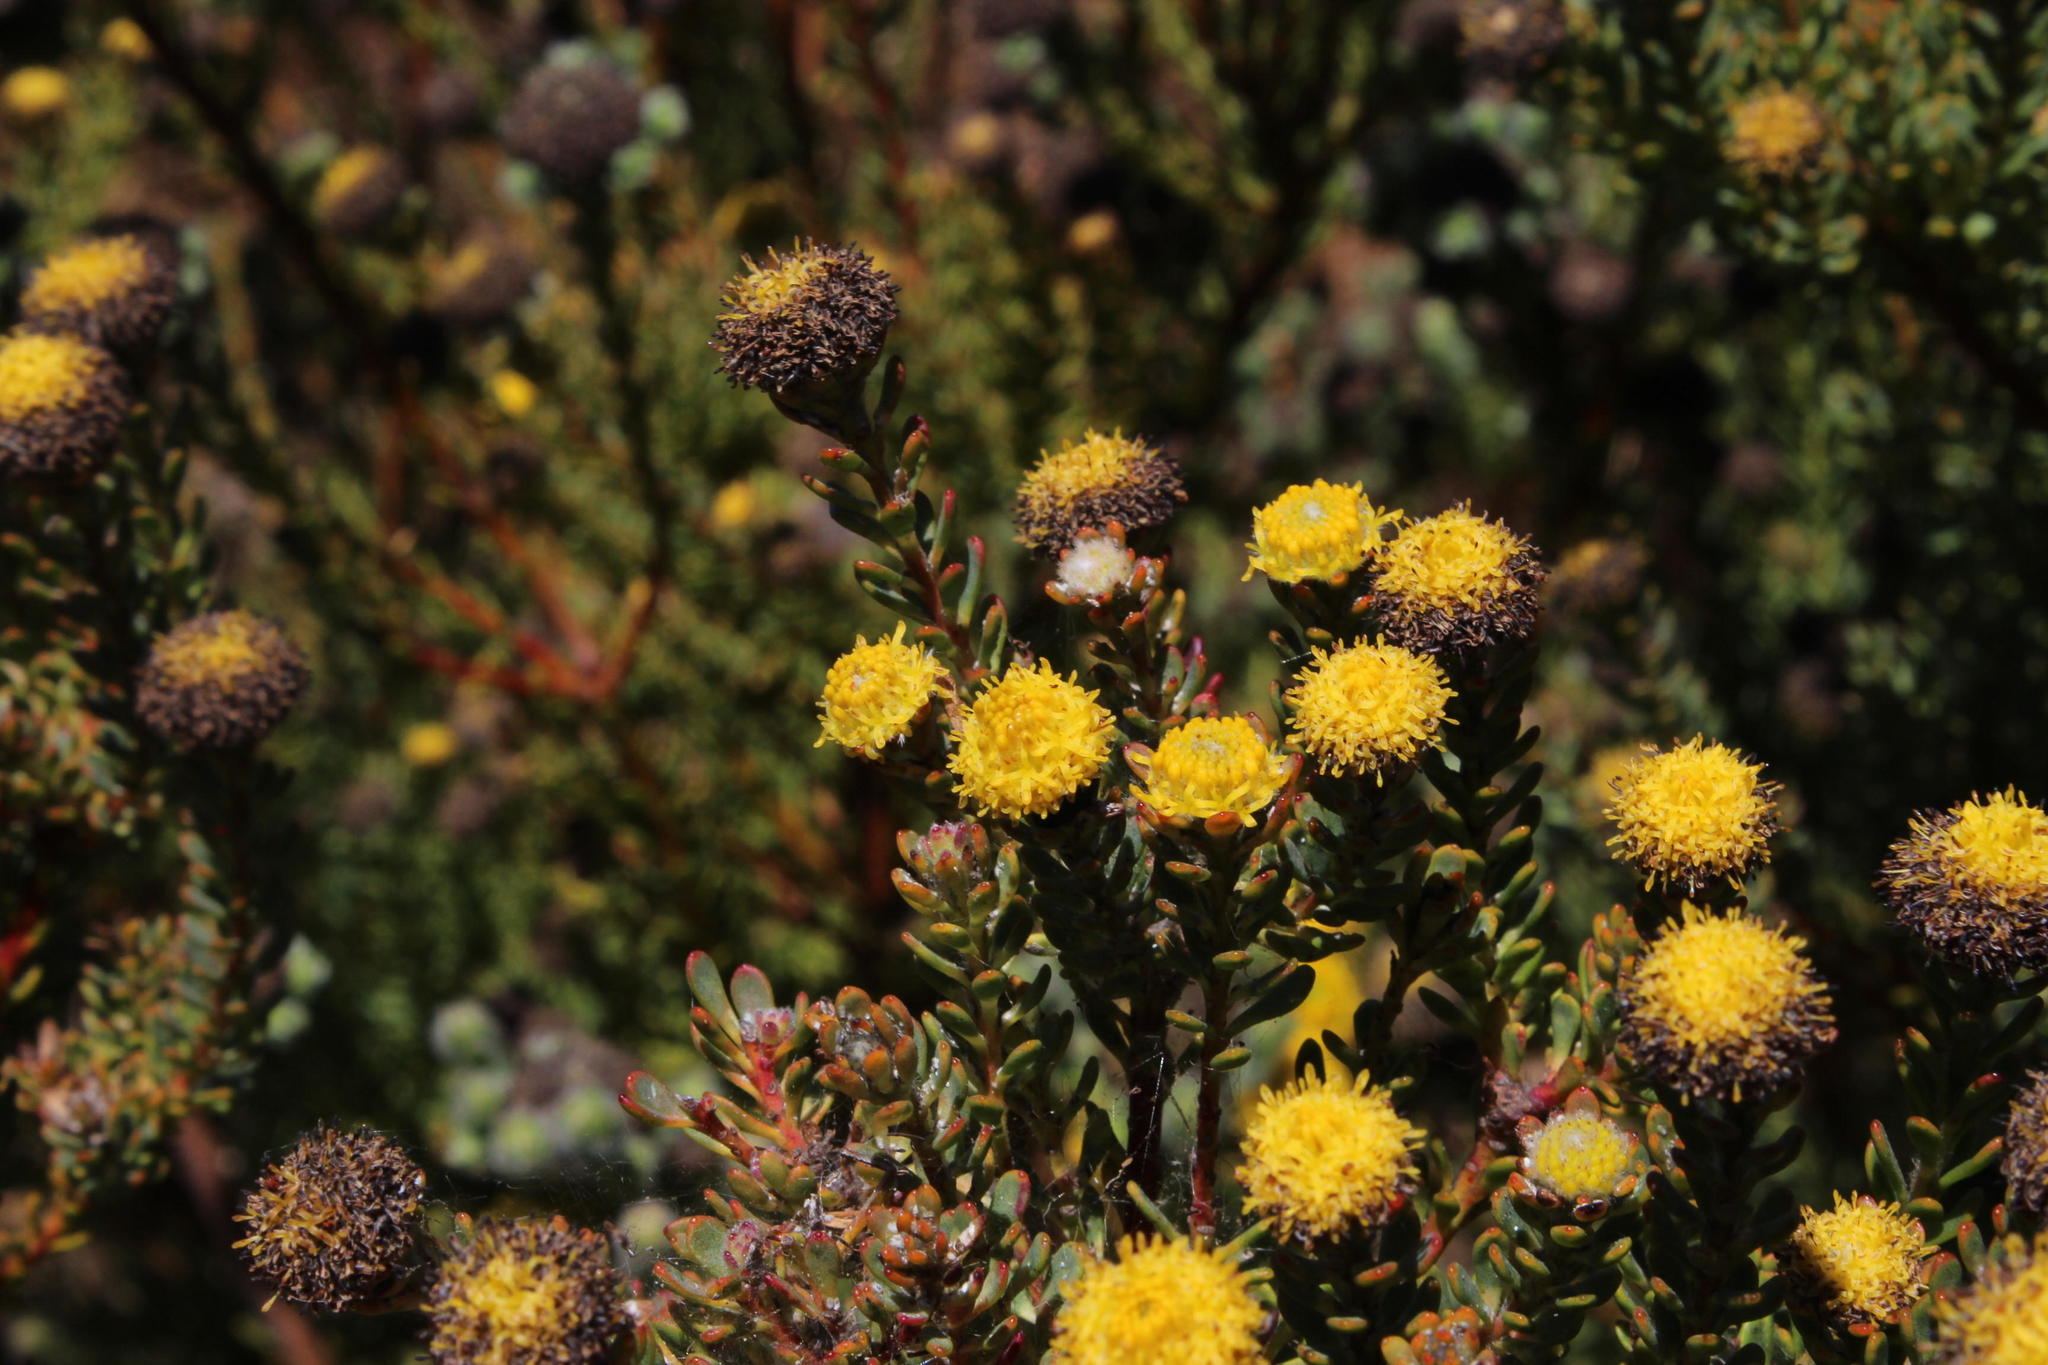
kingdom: Plantae
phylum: Tracheophyta
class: Magnoliopsida
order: Proteales
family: Proteaceae
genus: Leucadendron
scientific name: Leucadendron levisanus
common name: Cape flats conebush
